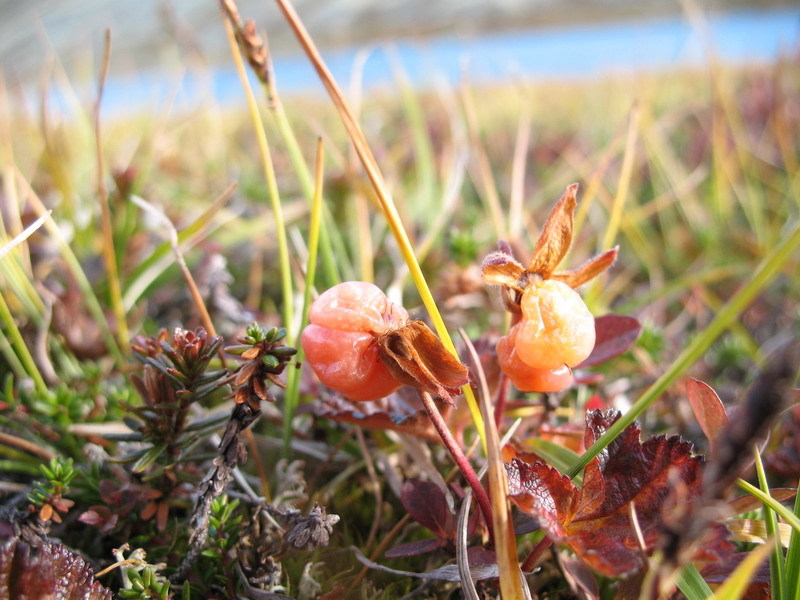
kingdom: Plantae
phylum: Tracheophyta
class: Magnoliopsida
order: Rosales
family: Rosaceae
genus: Rubus
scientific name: Rubus chamaemorus
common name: Cloudberry
